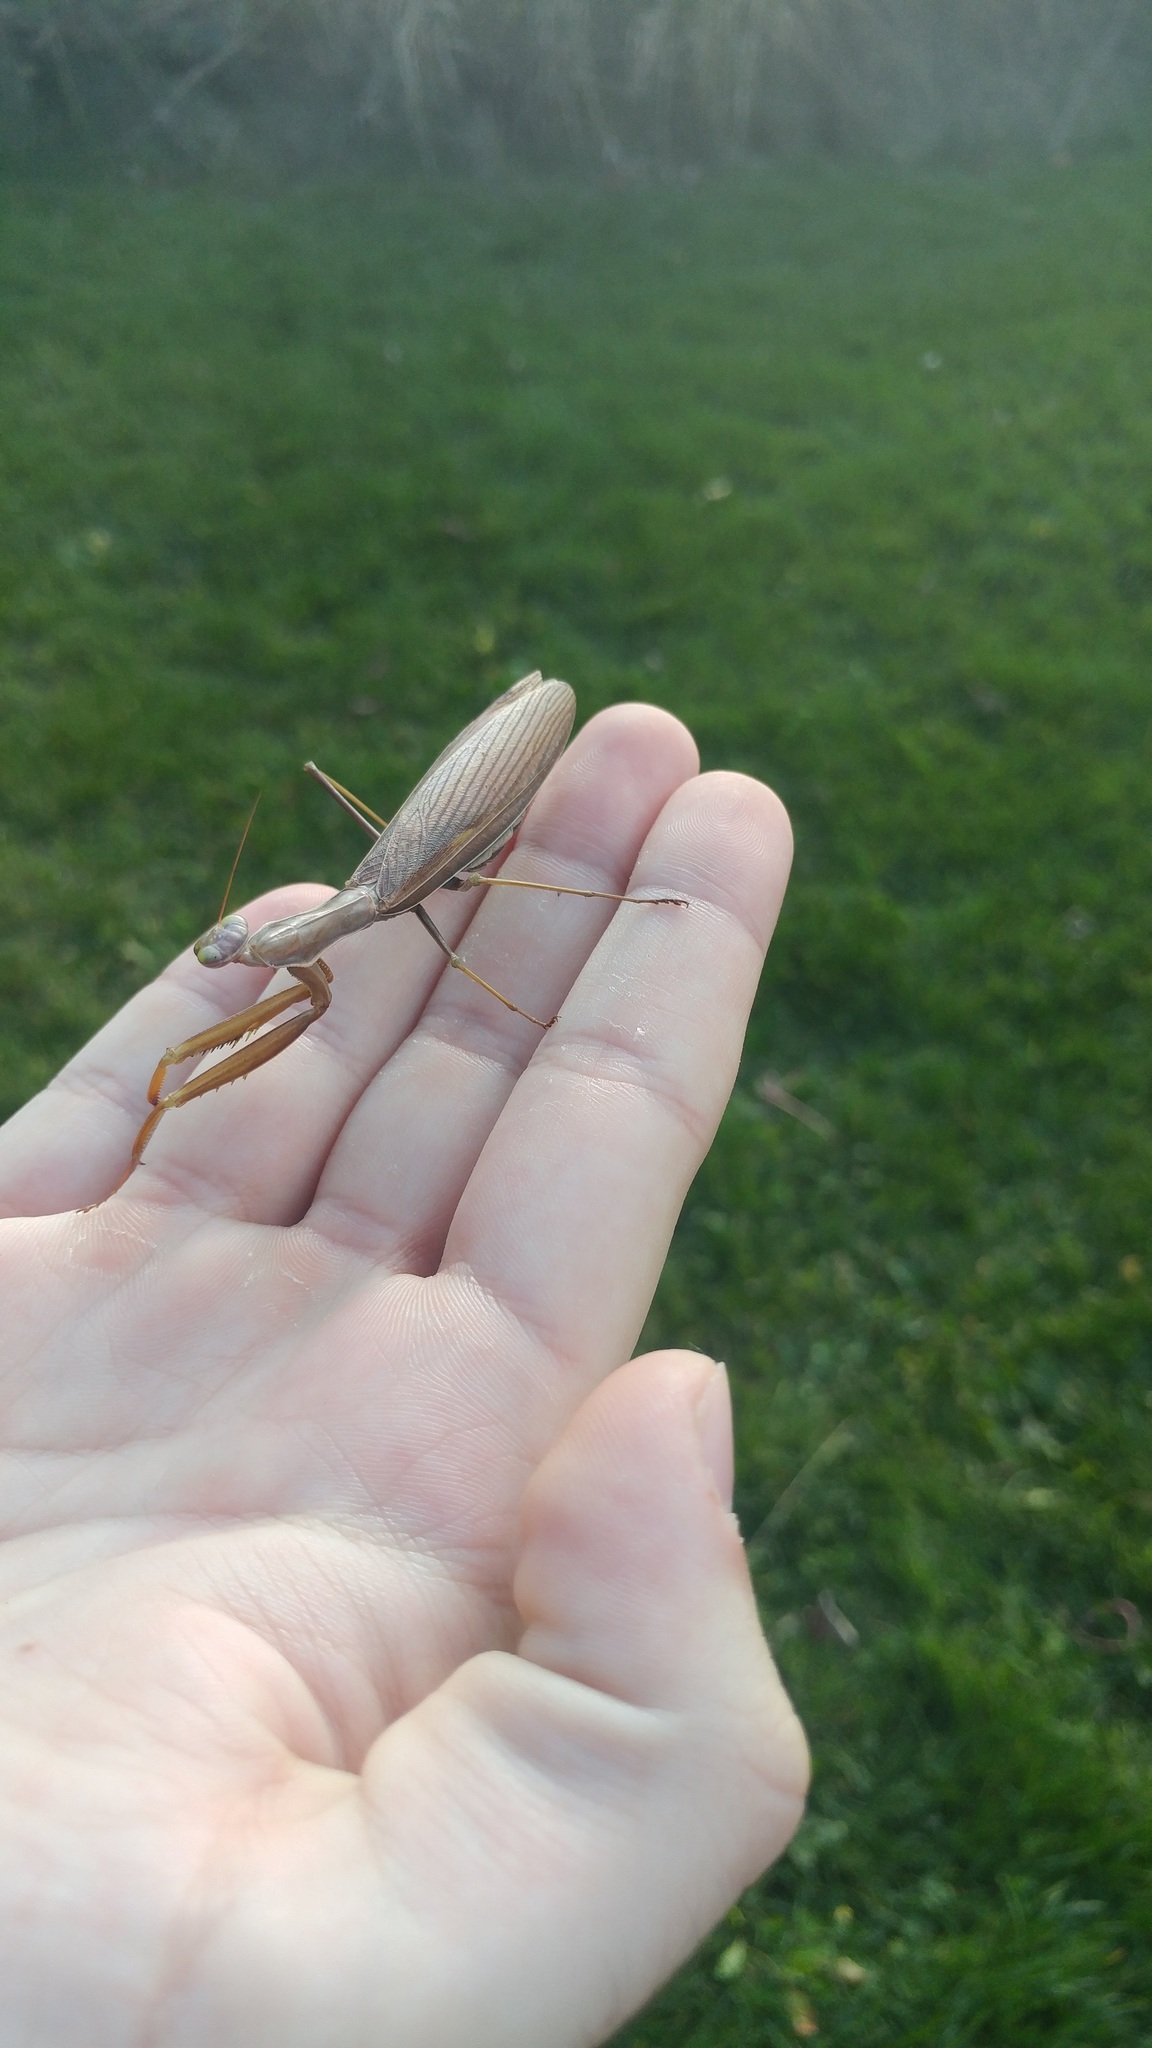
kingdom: Animalia
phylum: Arthropoda
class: Insecta
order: Mantodea
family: Mantidae
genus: Mantis
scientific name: Mantis religiosa
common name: Praying mantis
